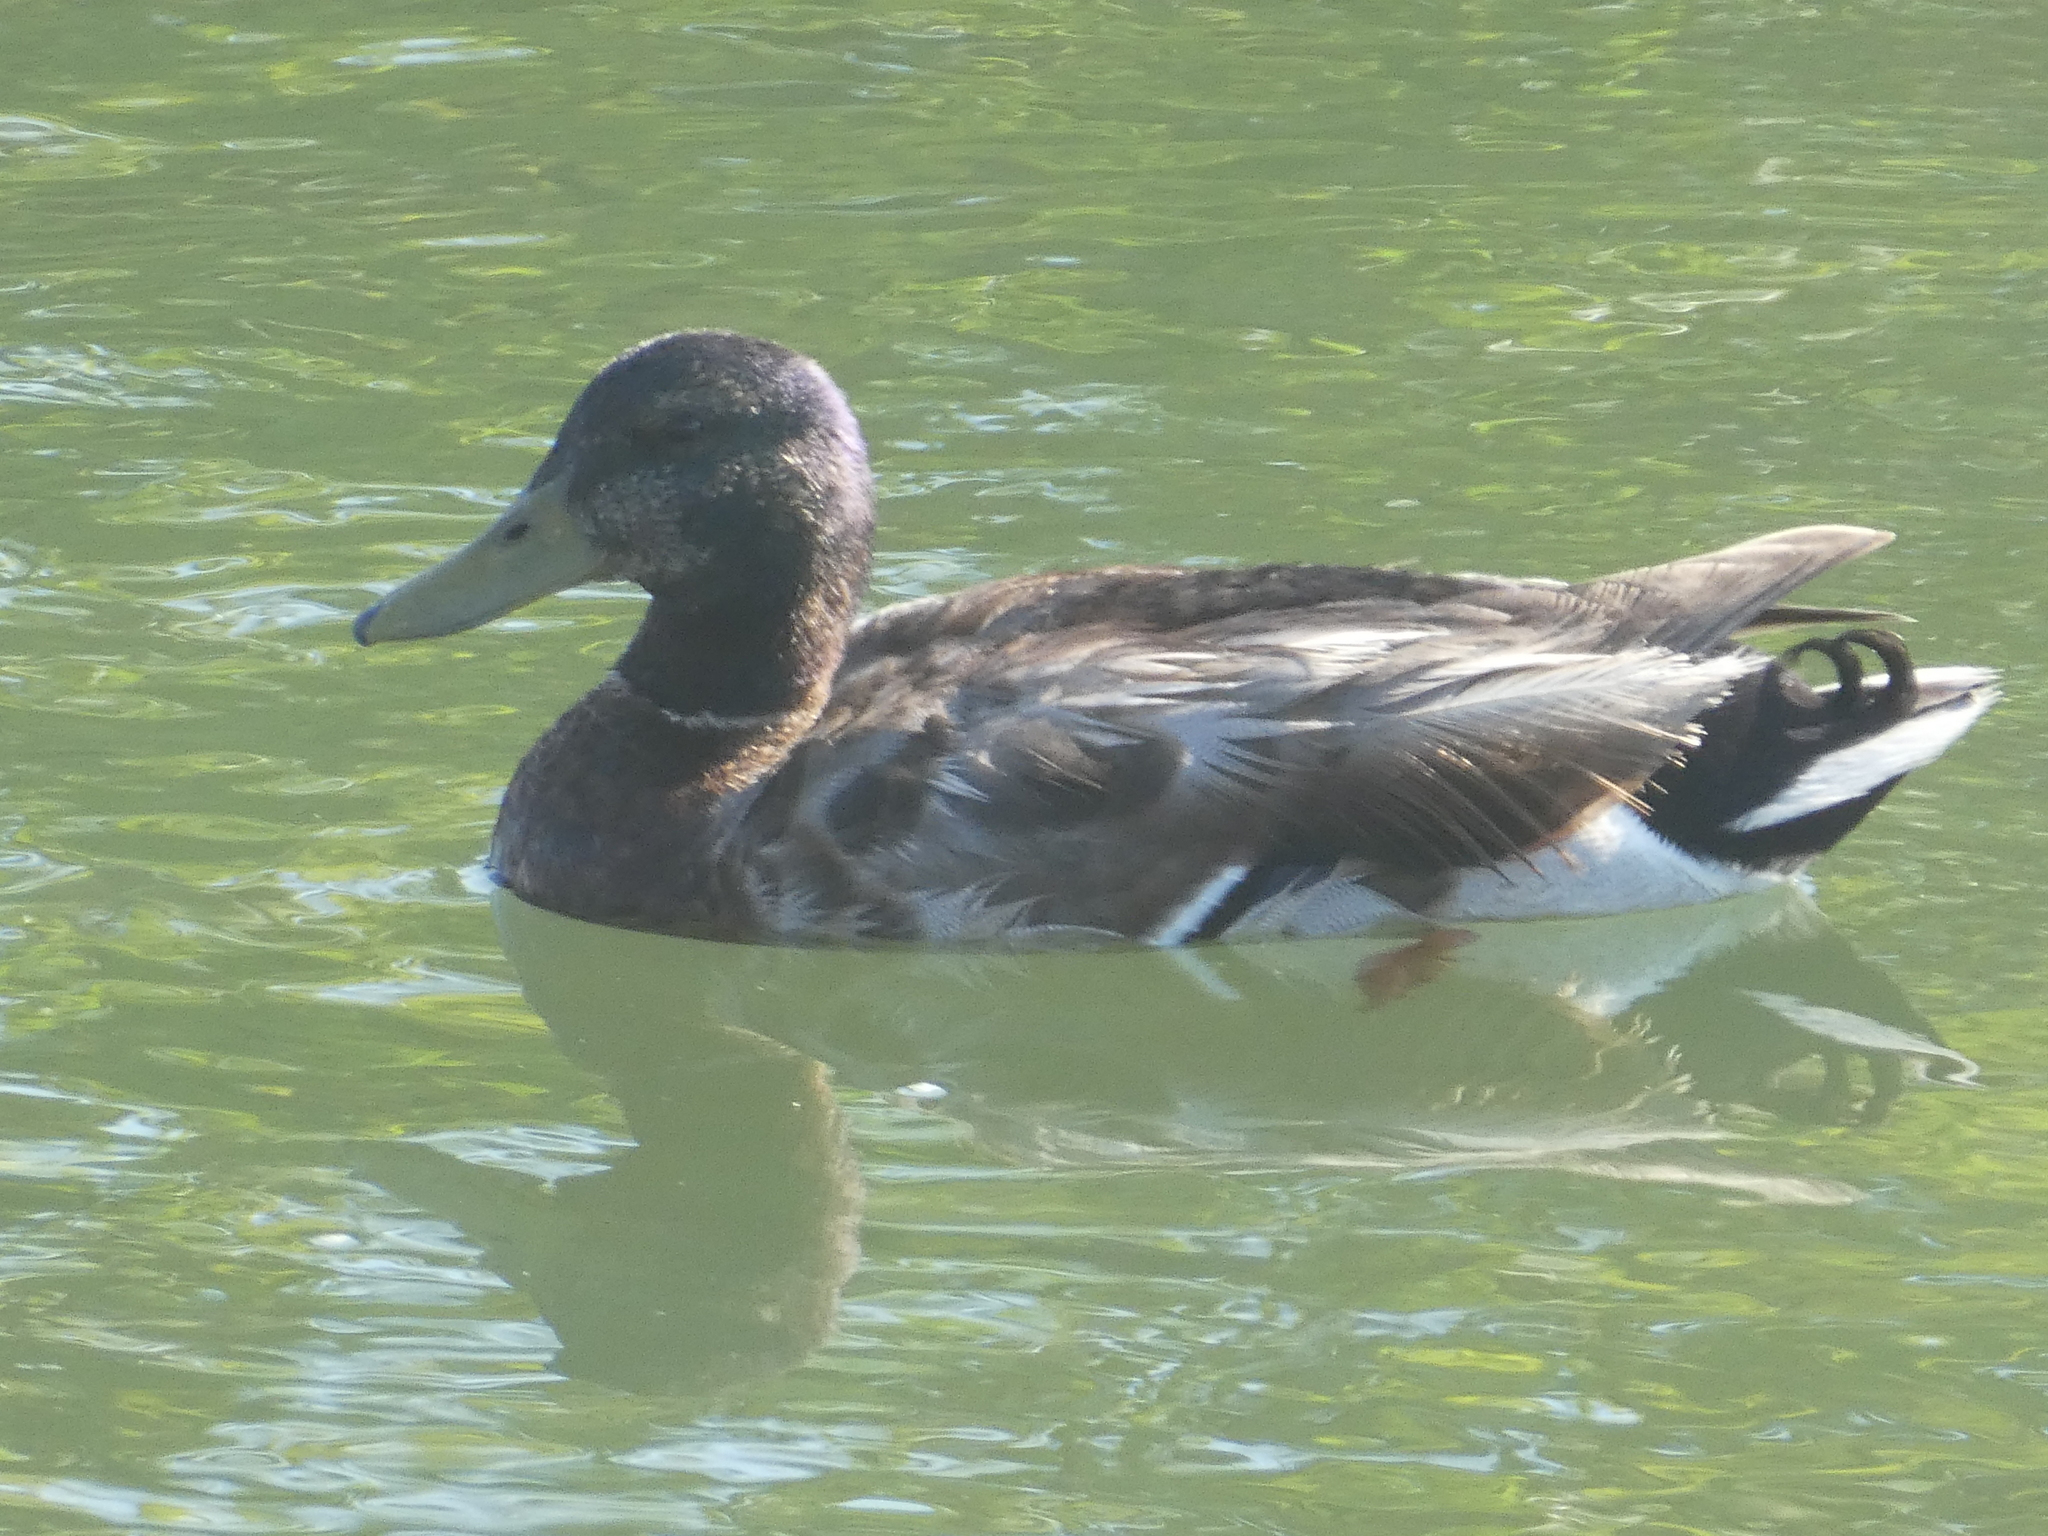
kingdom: Animalia
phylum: Chordata
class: Aves
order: Anseriformes
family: Anatidae
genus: Anas
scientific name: Anas platyrhynchos
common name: Mallard
